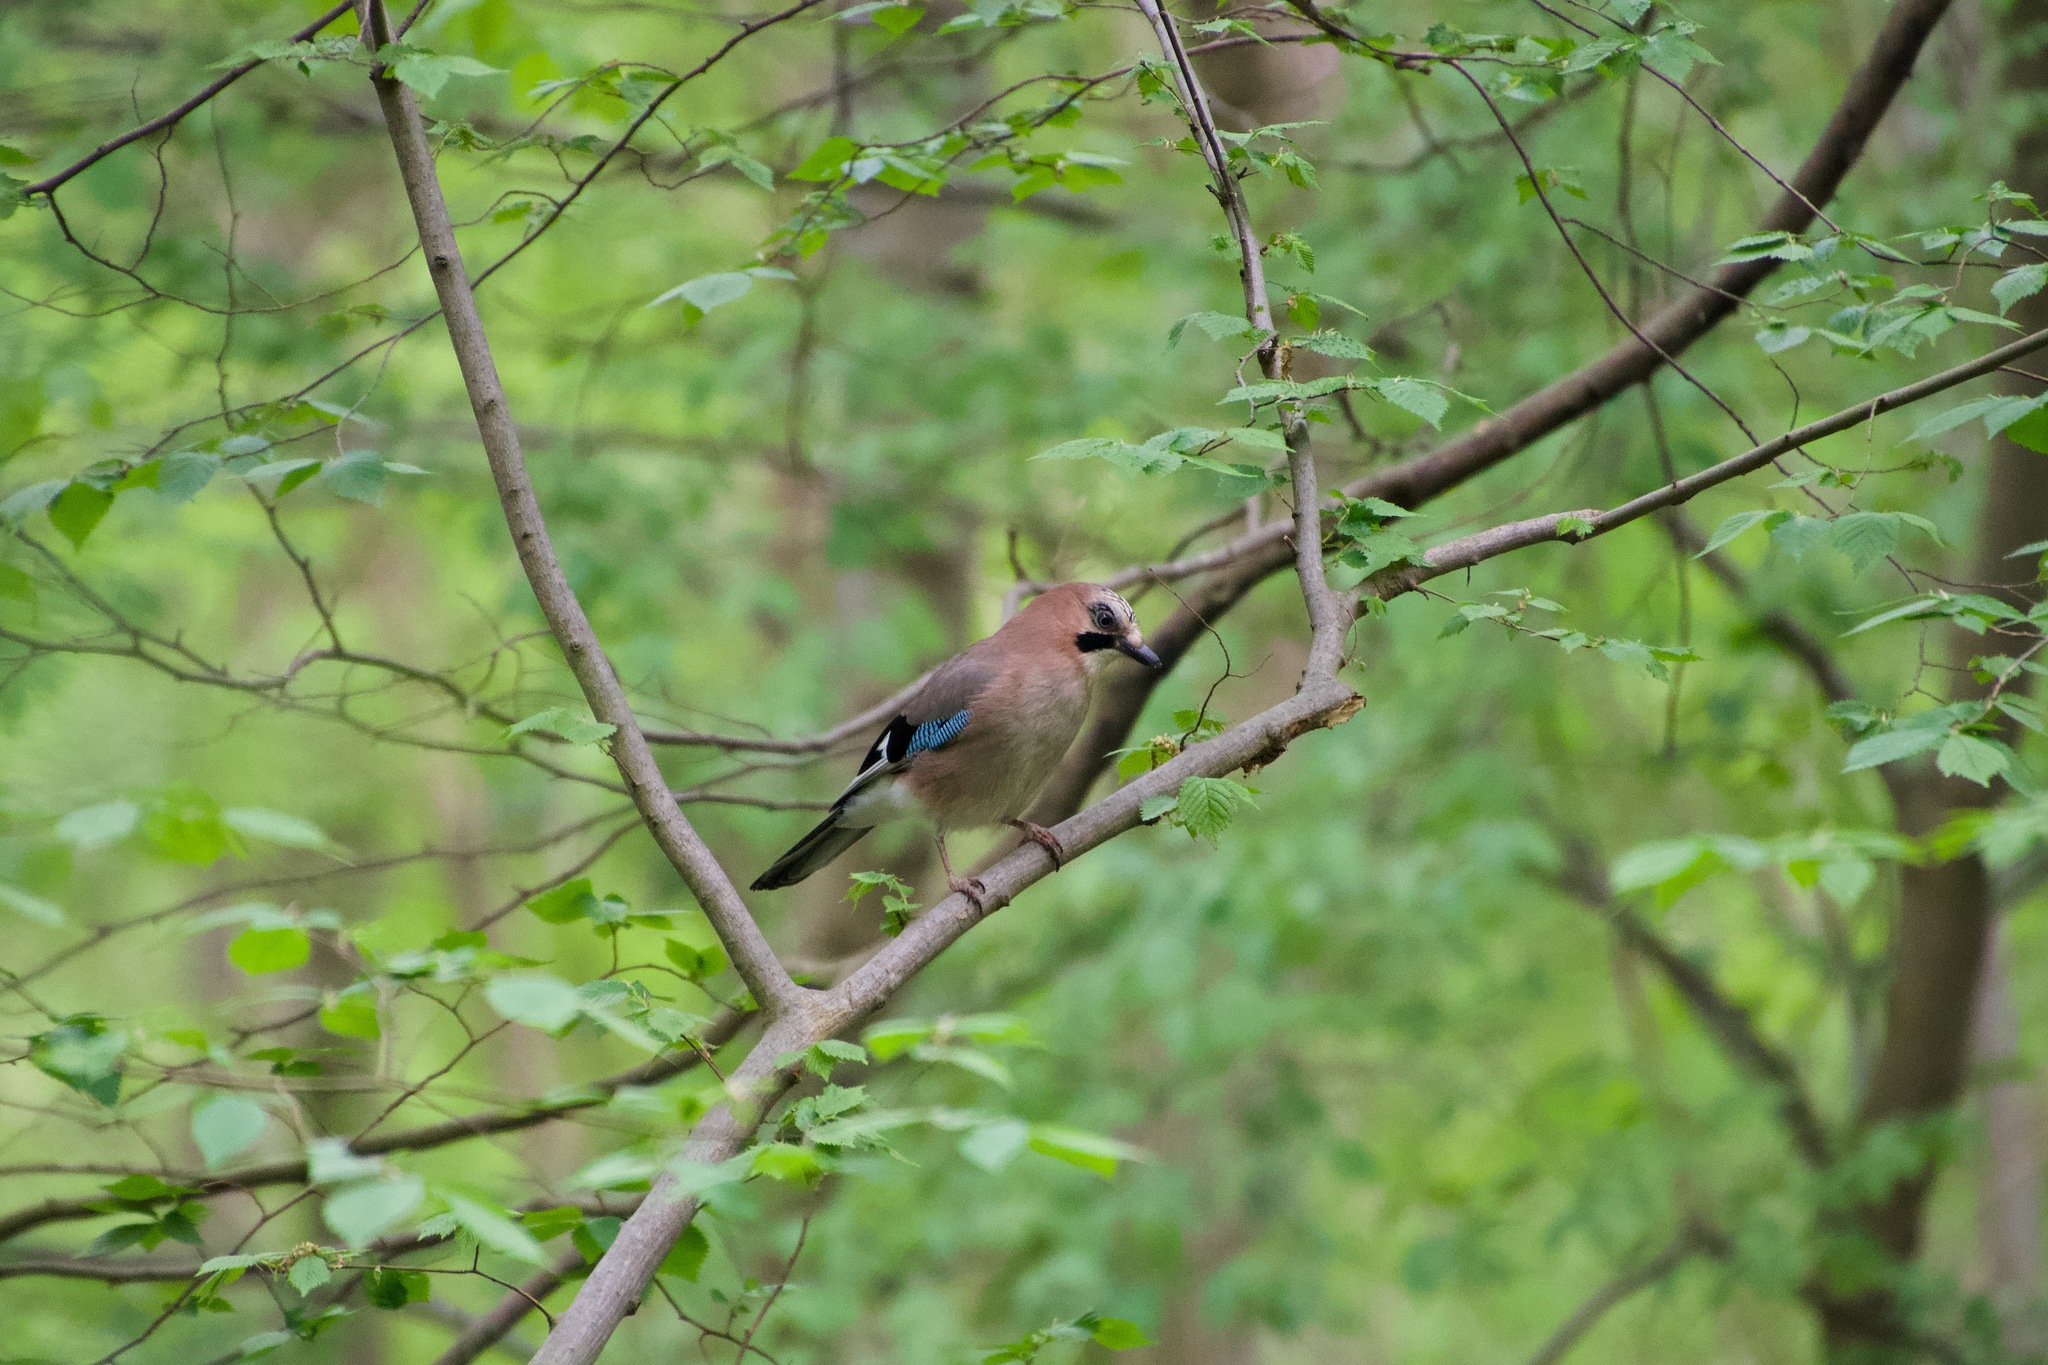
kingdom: Animalia
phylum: Chordata
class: Aves
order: Passeriformes
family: Corvidae
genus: Garrulus
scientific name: Garrulus glandarius
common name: Eurasian jay
